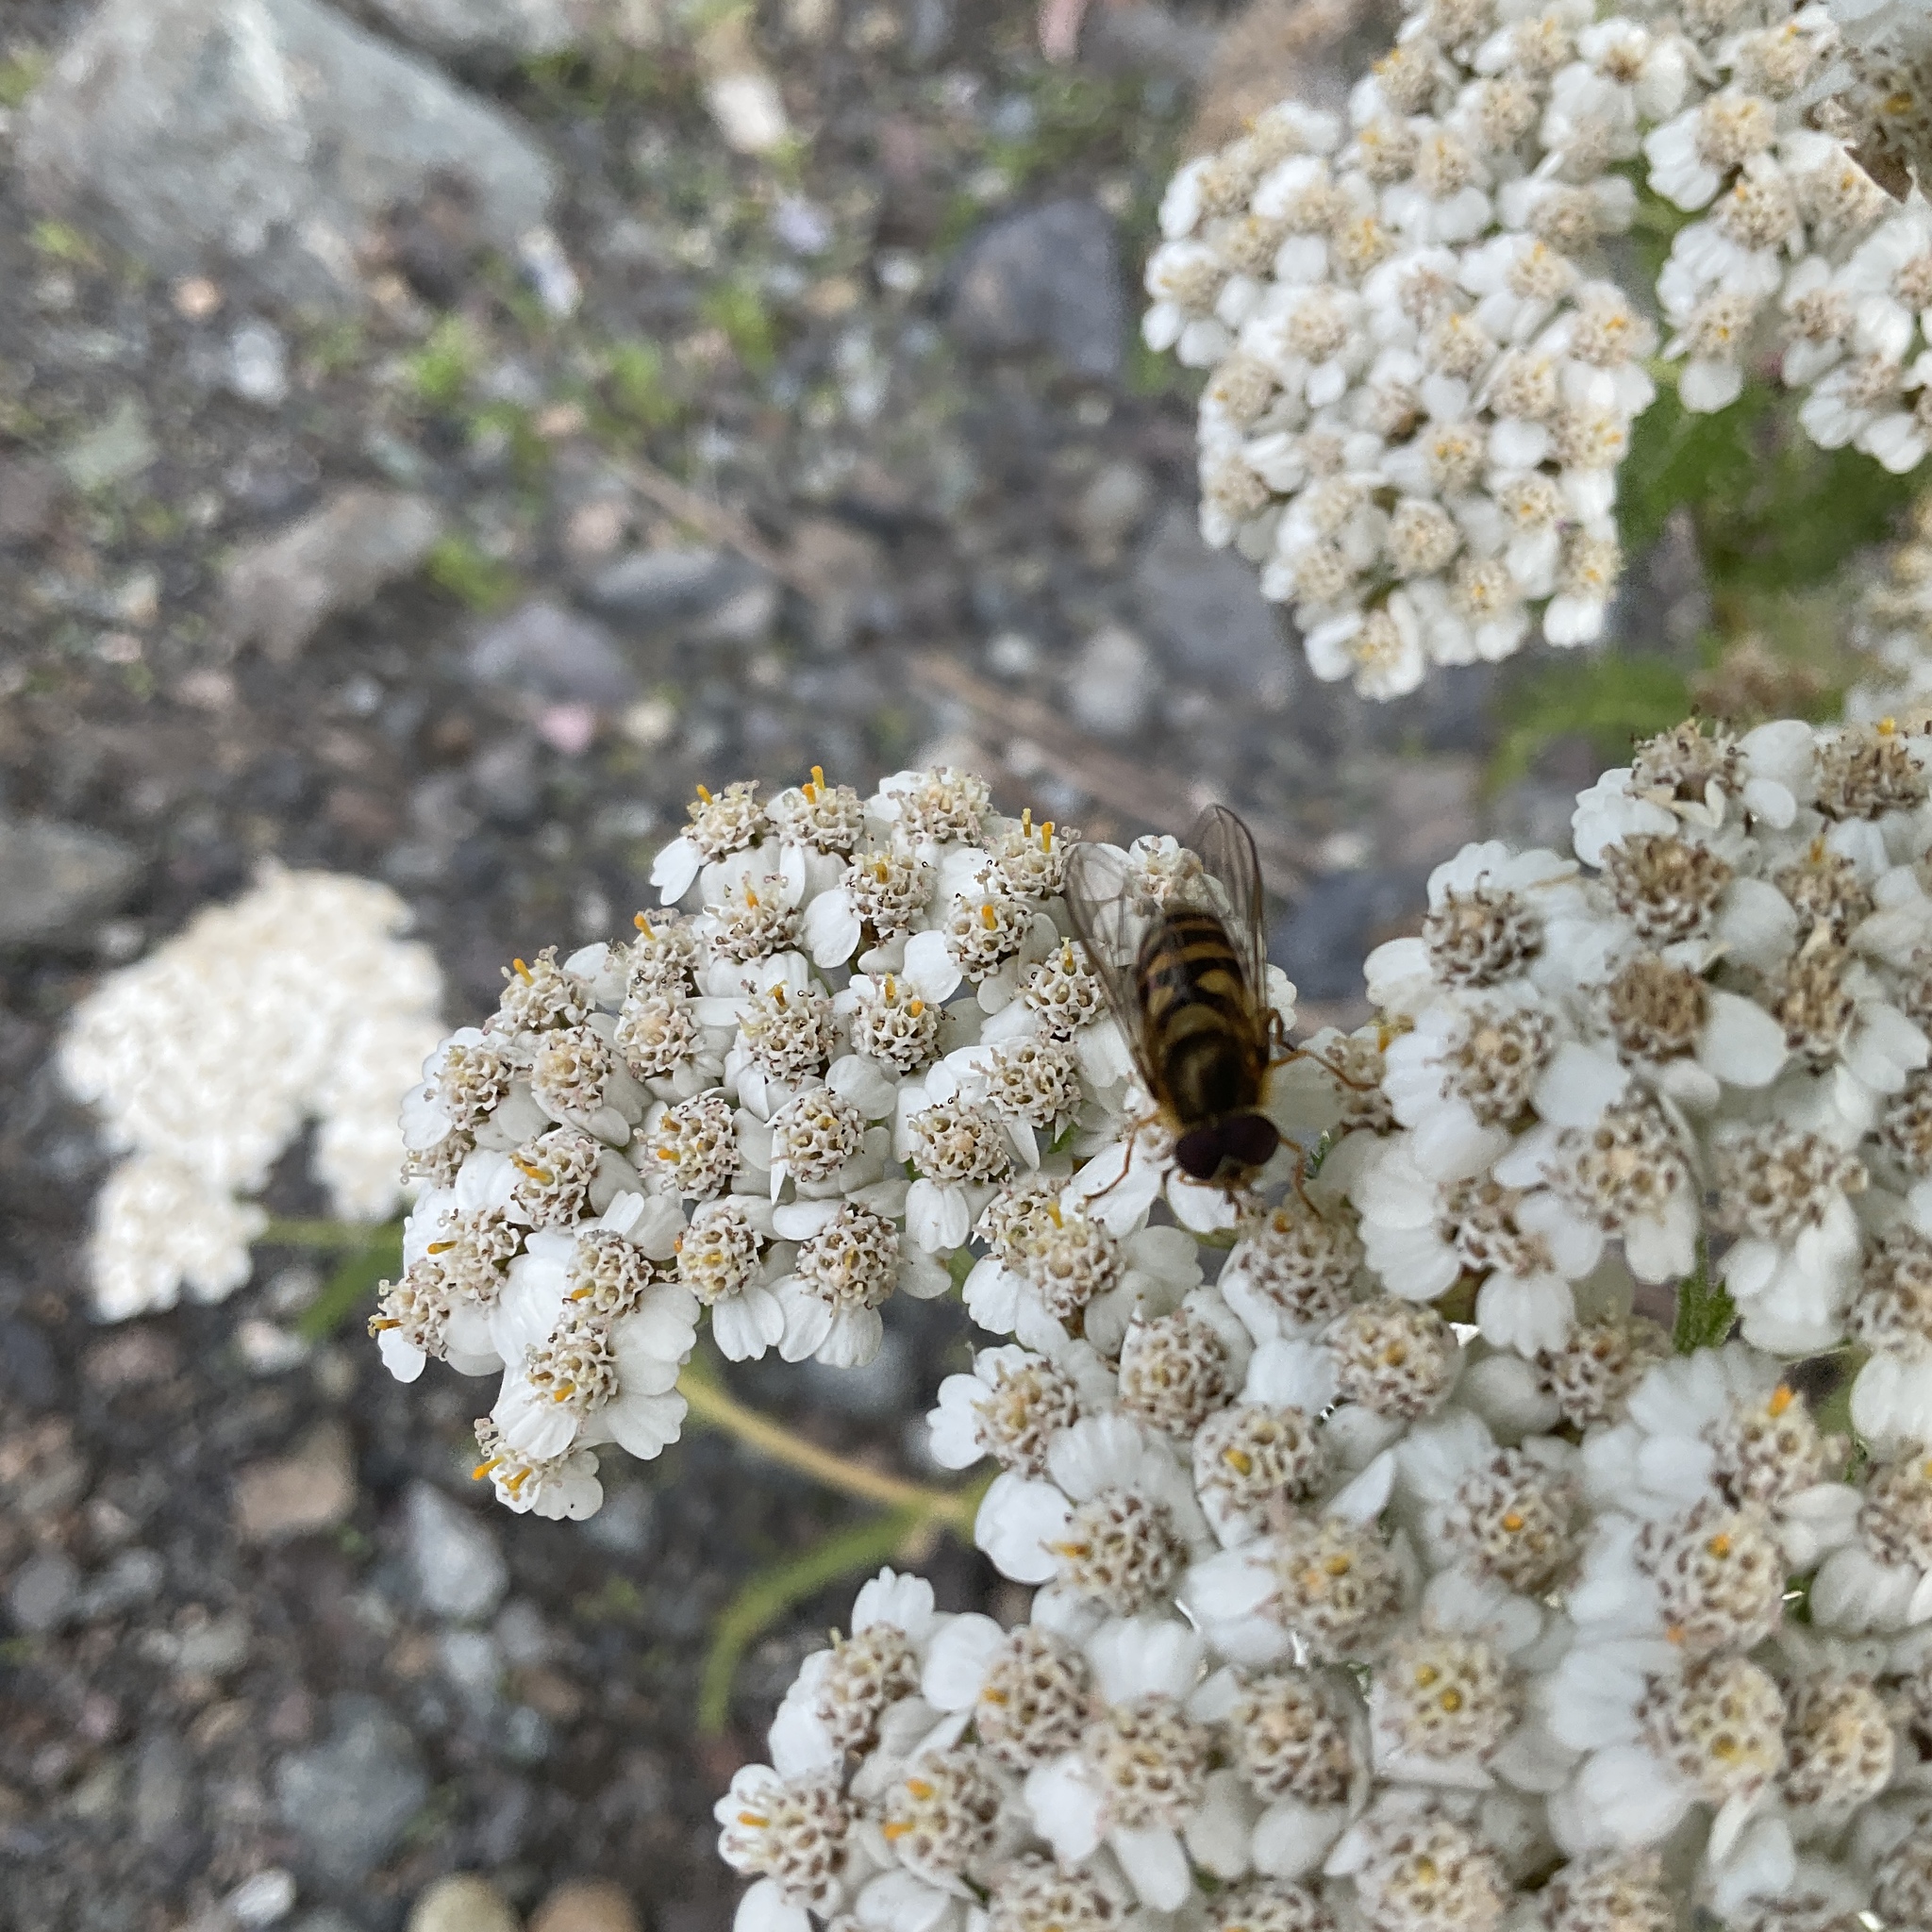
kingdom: Animalia
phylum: Arthropoda
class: Insecta
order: Diptera
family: Syrphidae
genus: Syrphus
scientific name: Syrphus
